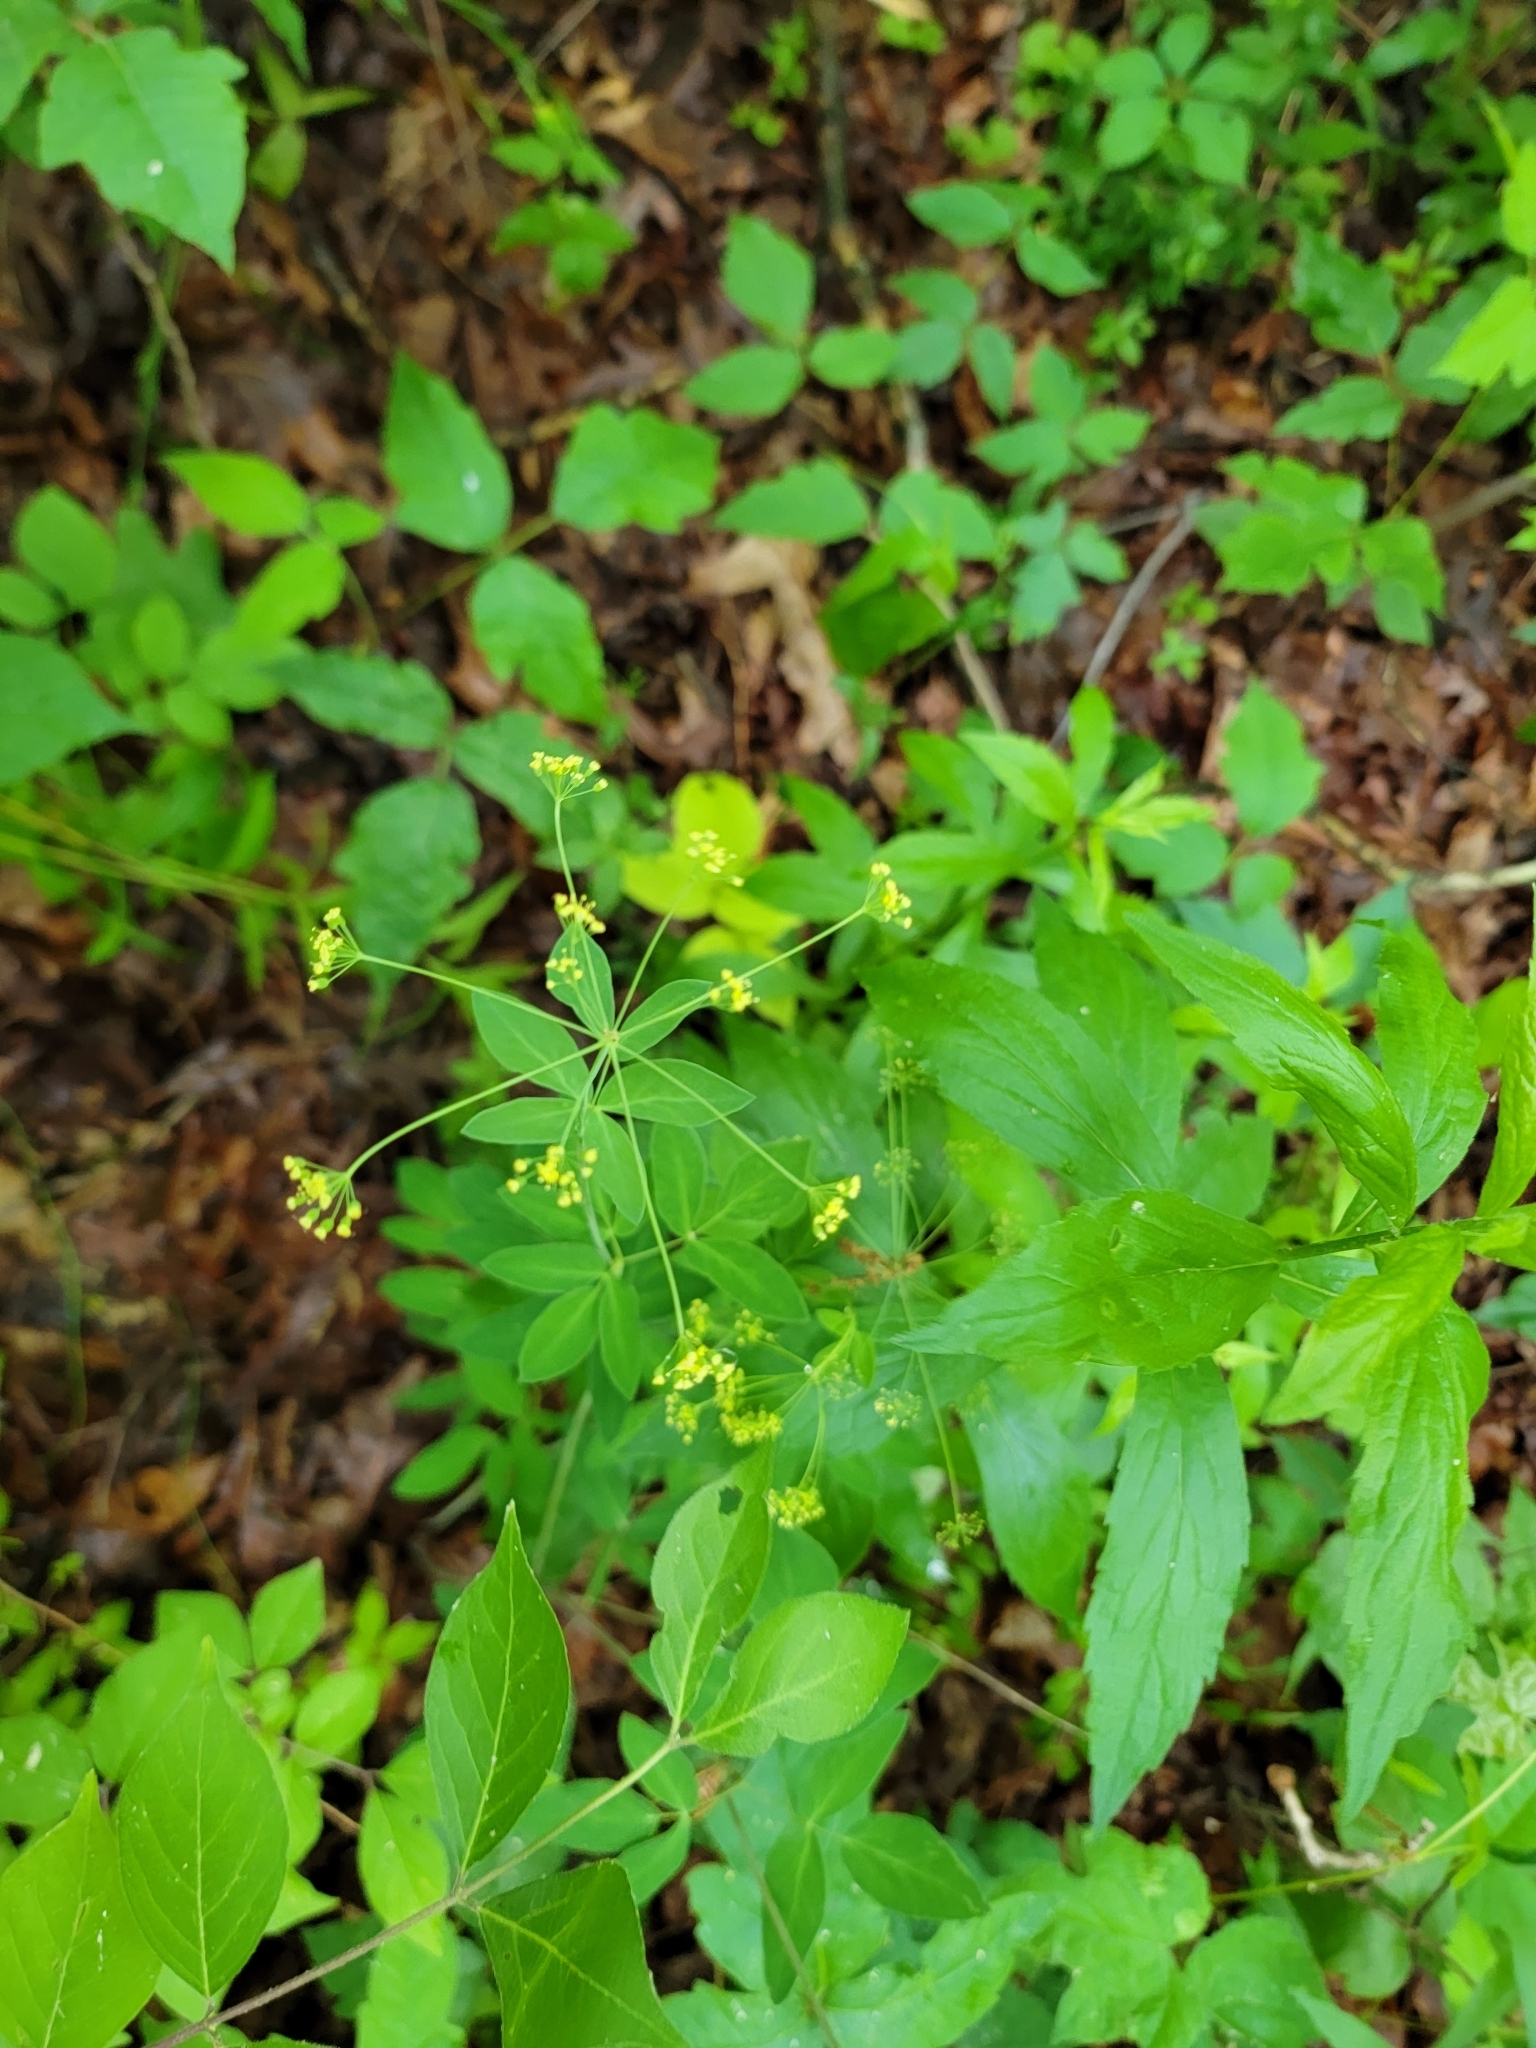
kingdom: Plantae
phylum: Tracheophyta
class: Magnoliopsida
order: Apiales
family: Apiaceae
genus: Taenidia
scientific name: Taenidia integerrima
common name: Golden alexander
